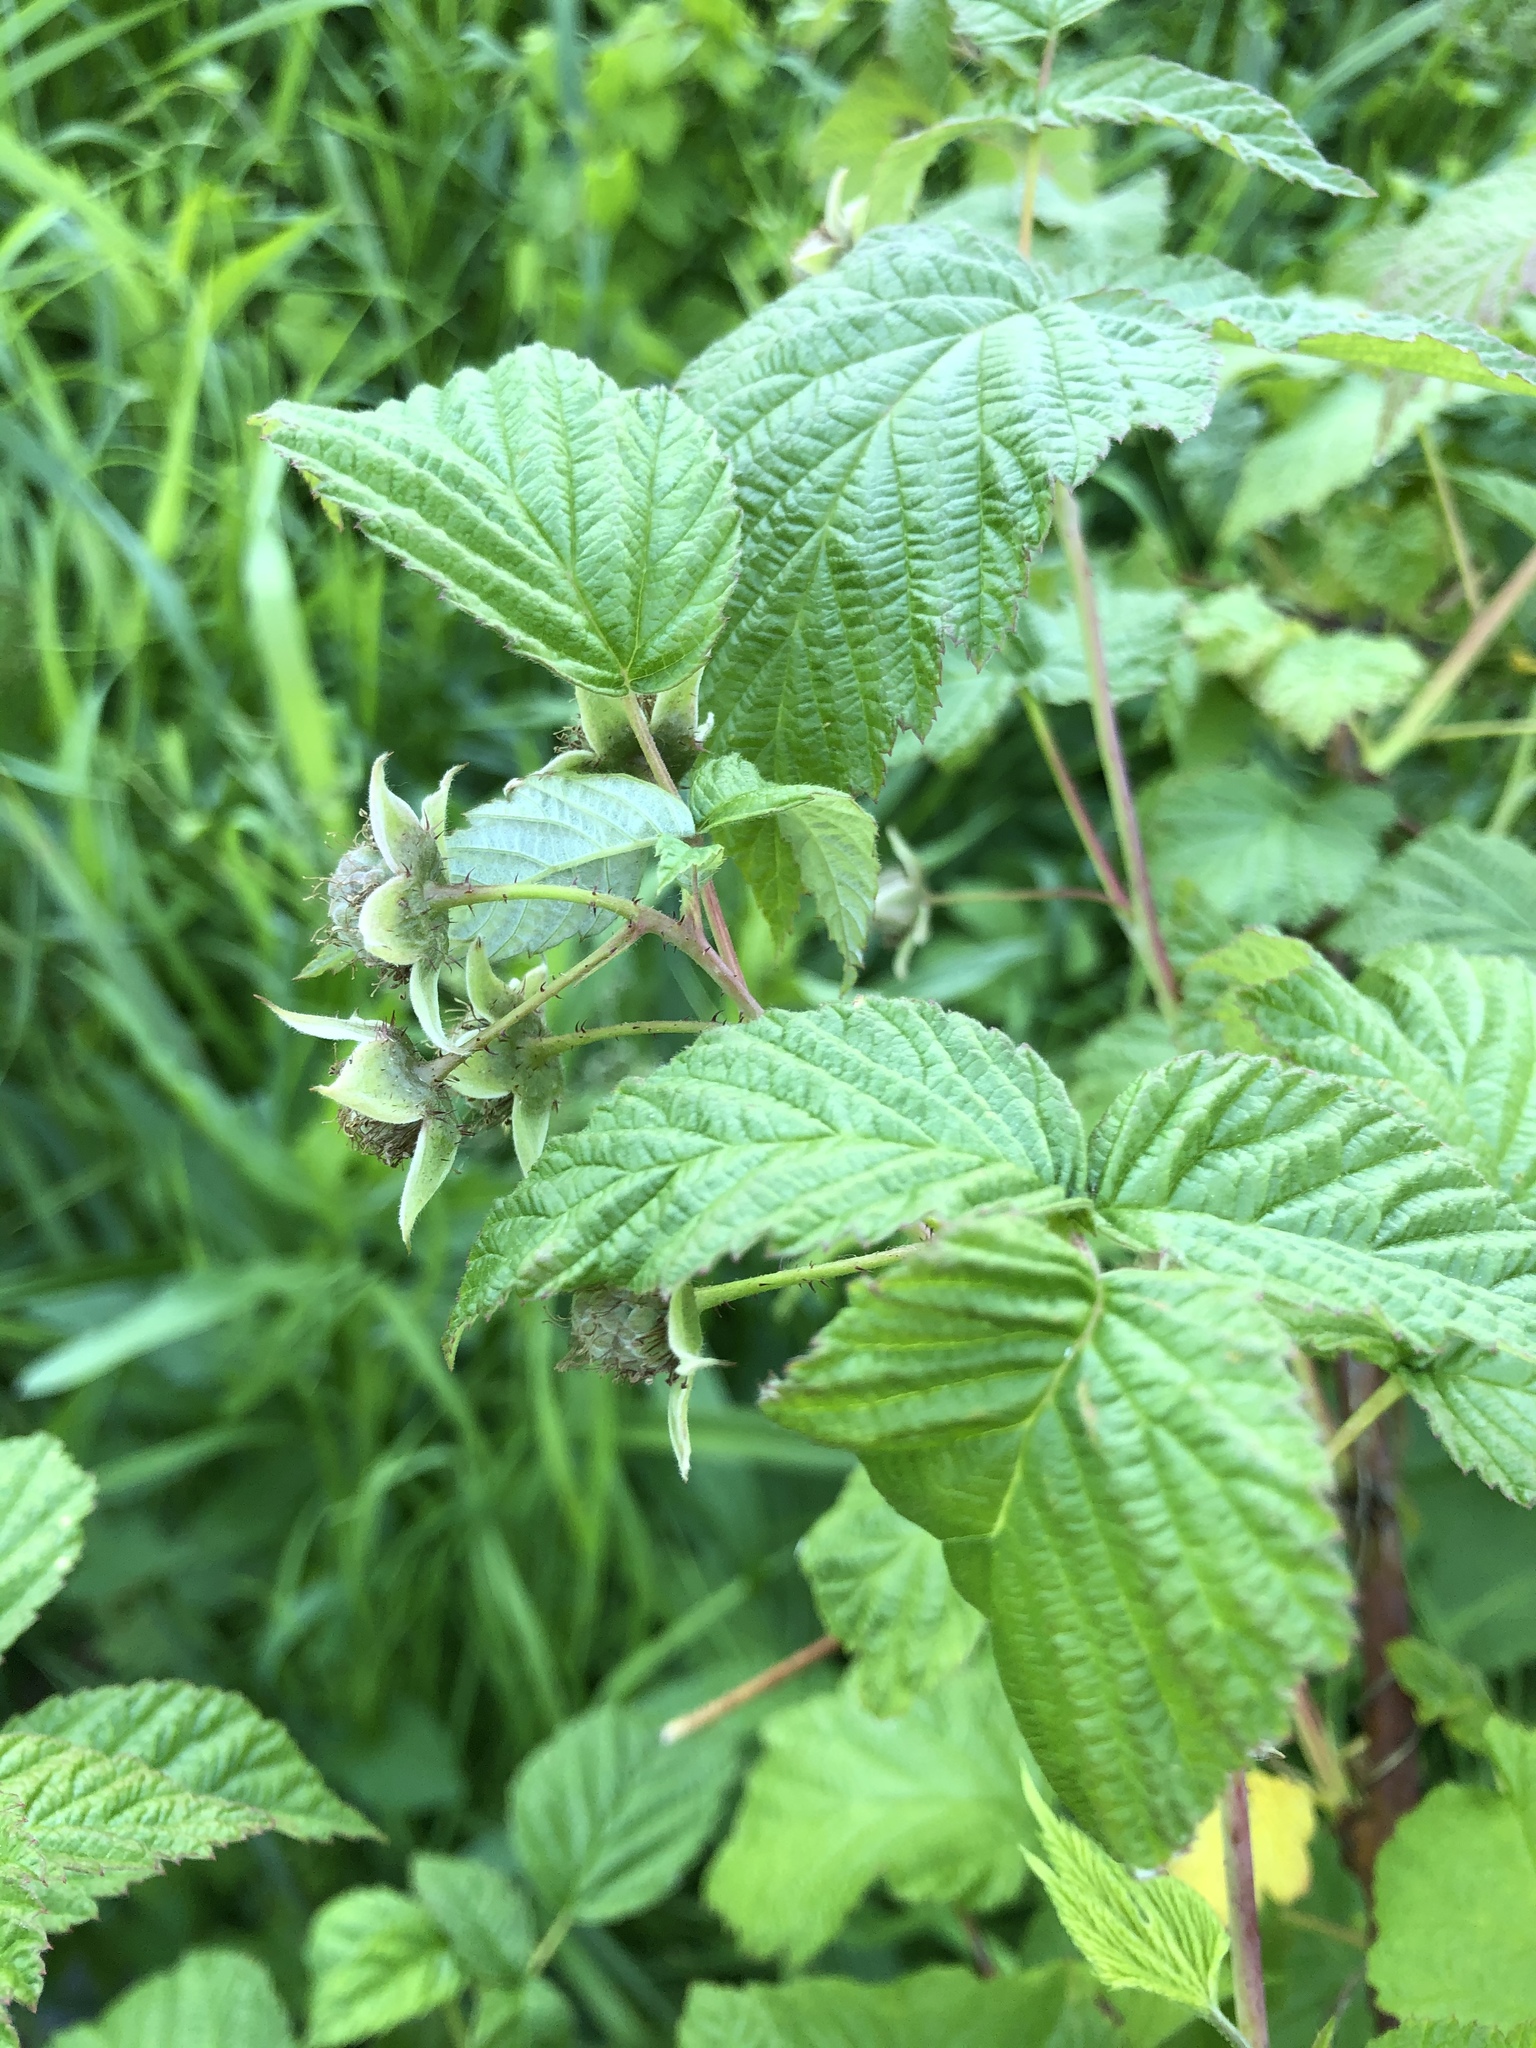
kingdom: Plantae
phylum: Tracheophyta
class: Magnoliopsida
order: Rosales
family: Rosaceae
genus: Rubus
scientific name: Rubus idaeus
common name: Raspberry
